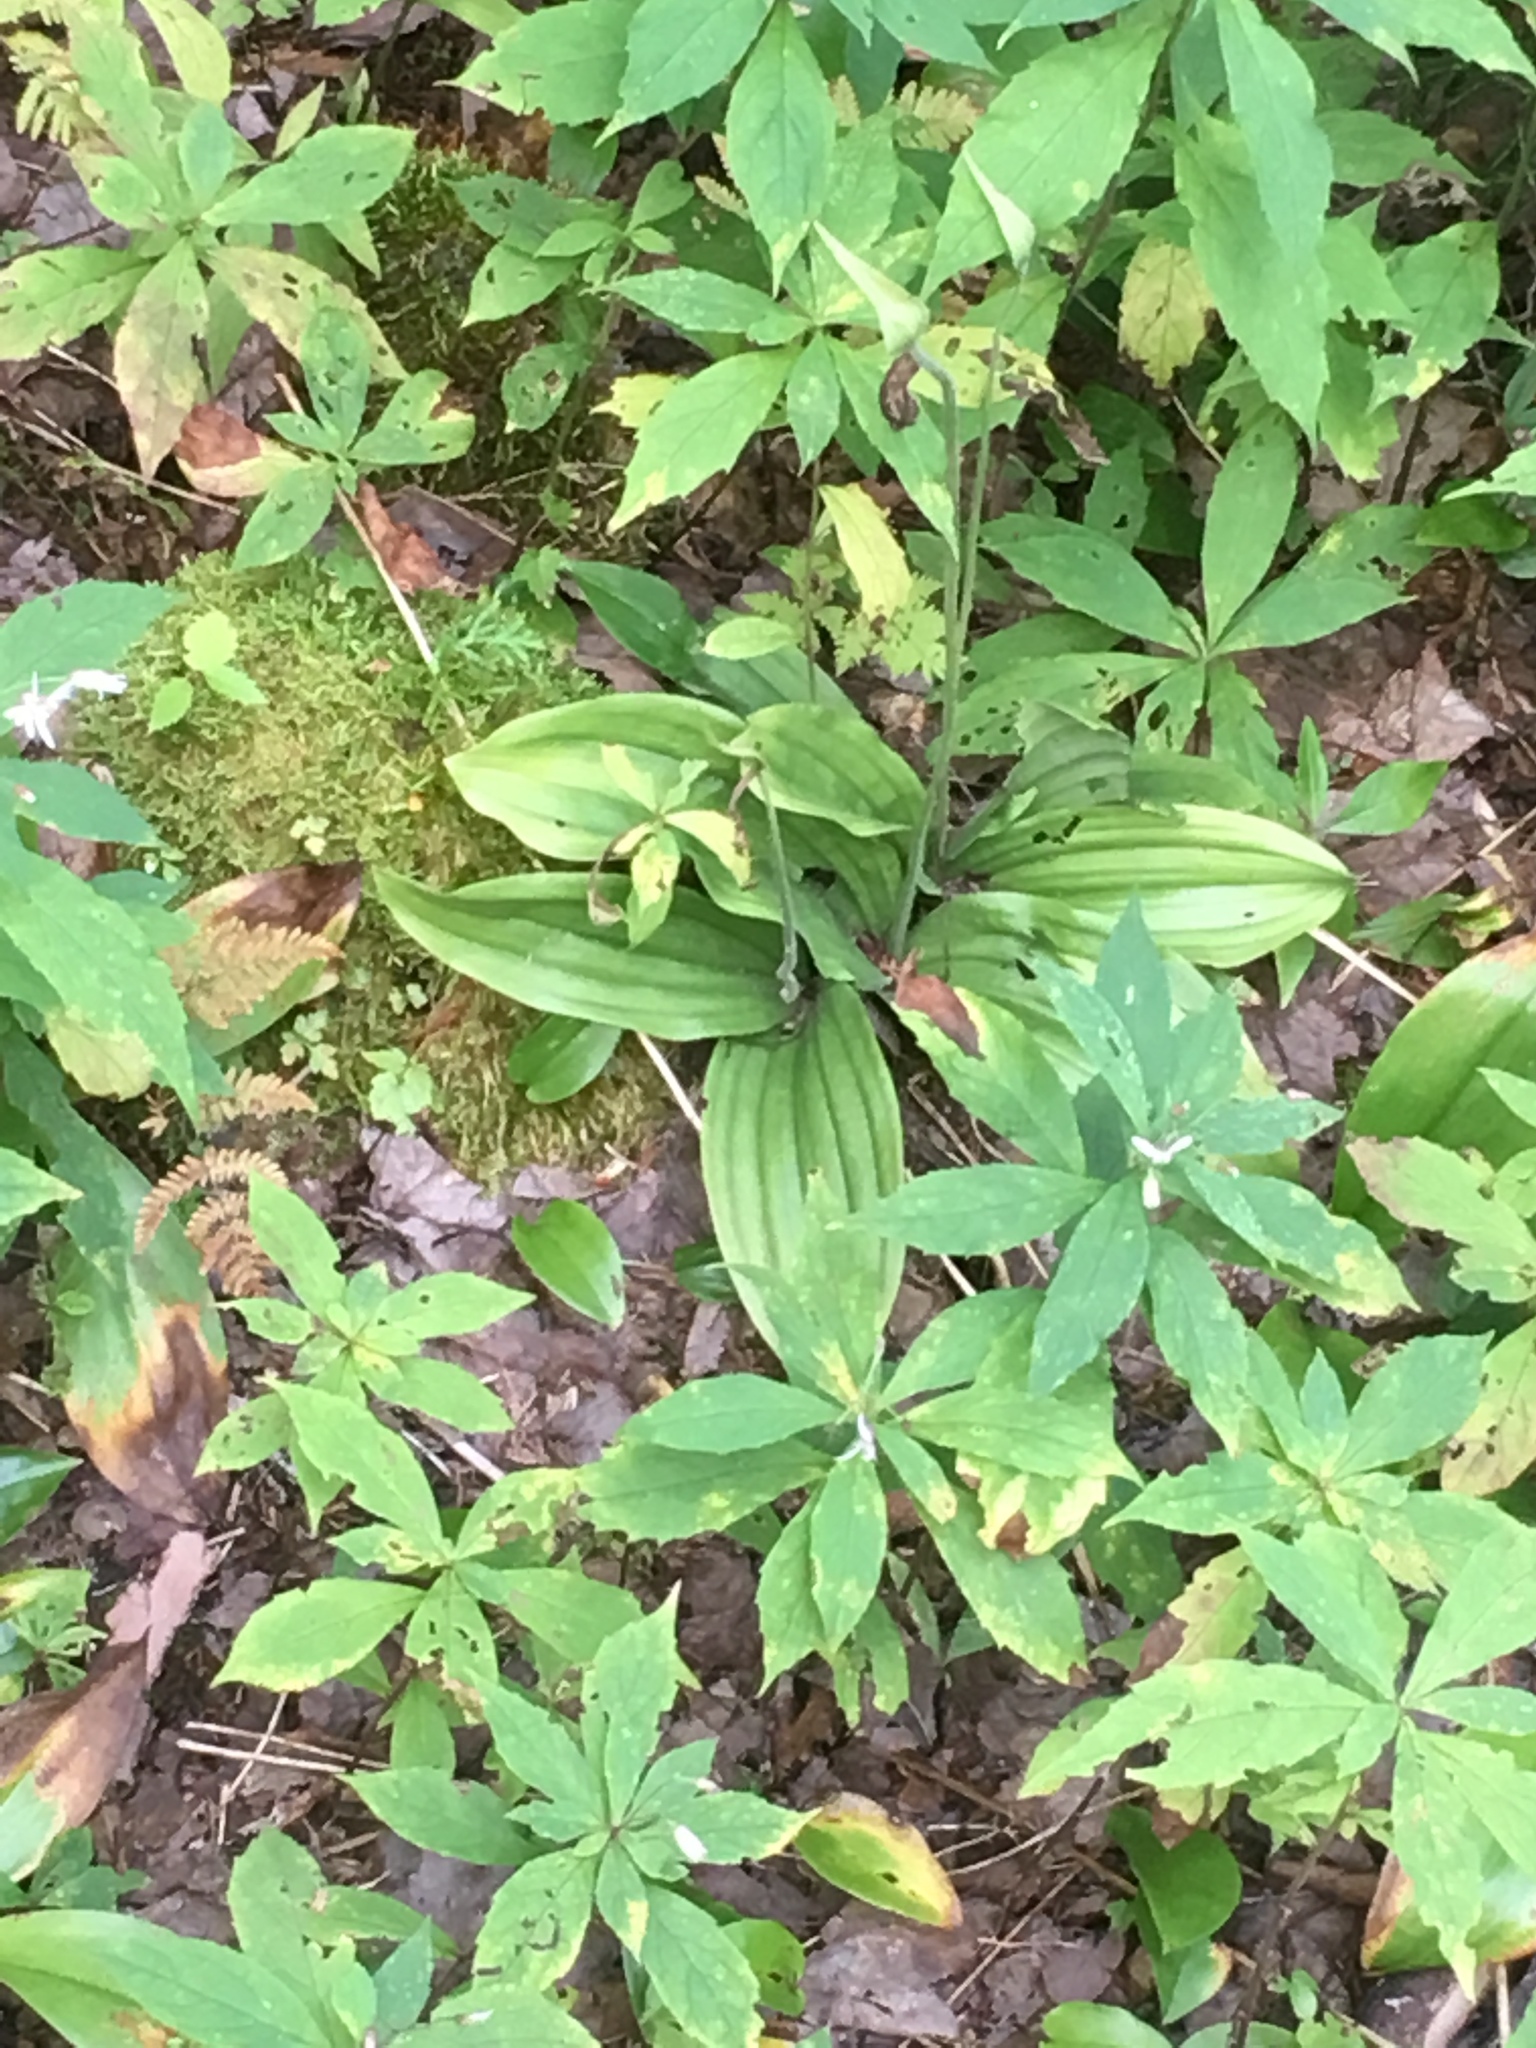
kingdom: Plantae
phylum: Tracheophyta
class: Liliopsida
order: Asparagales
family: Orchidaceae
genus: Cypripedium
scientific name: Cypripedium acaule
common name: Pink lady's-slipper
